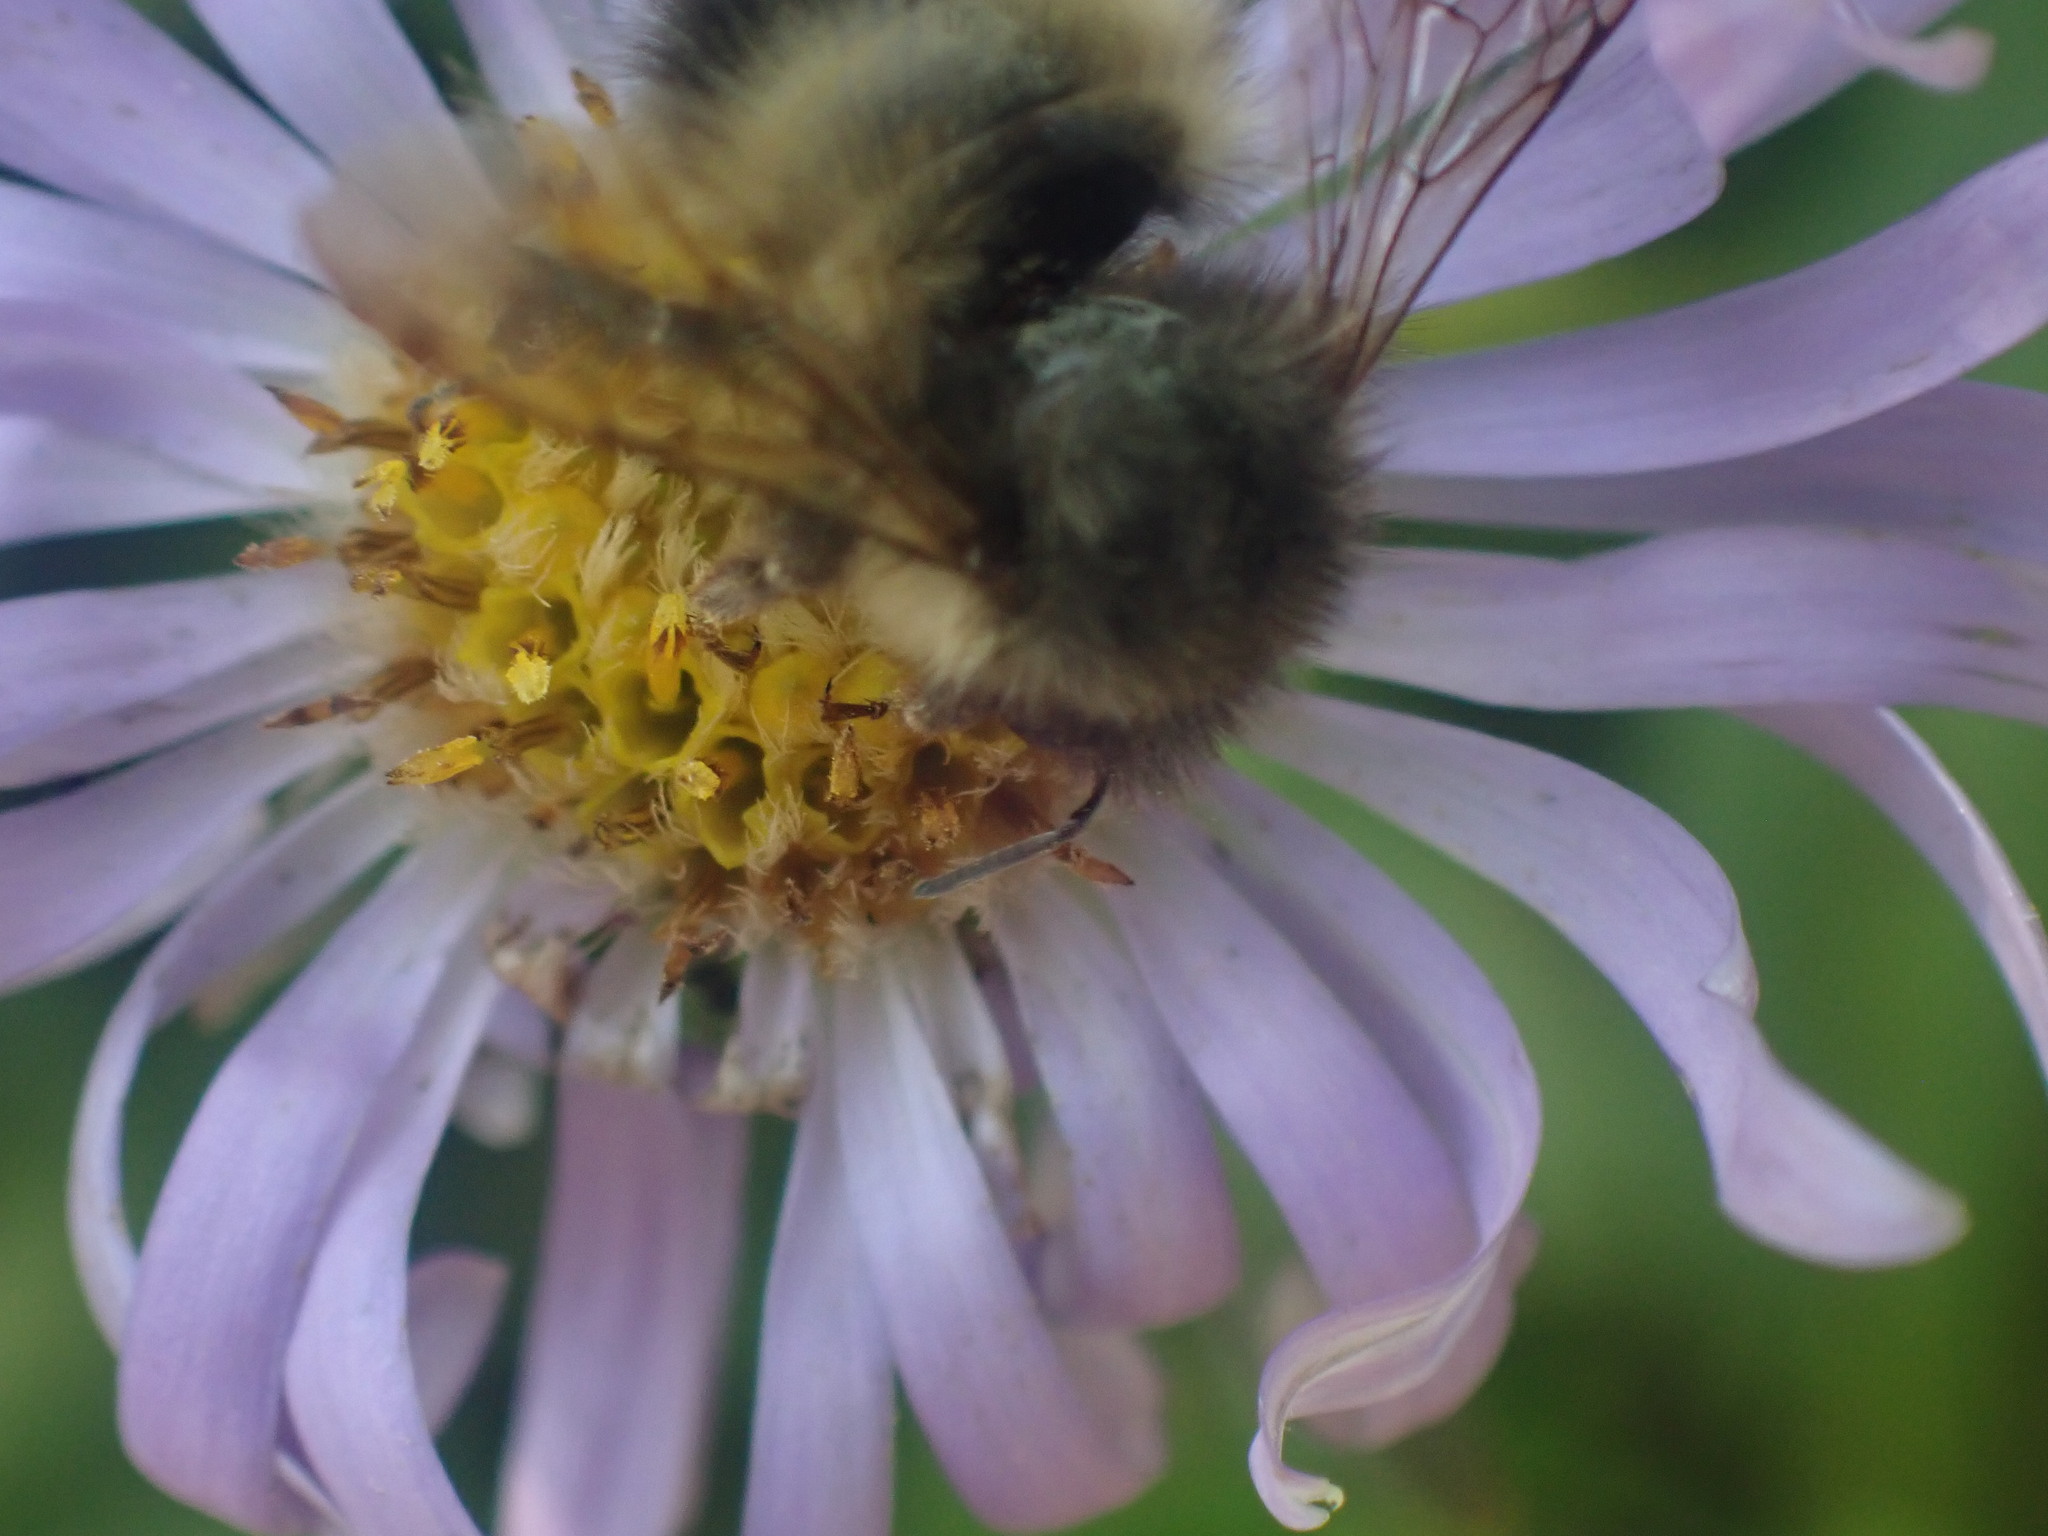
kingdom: Animalia
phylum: Arthropoda
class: Insecta
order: Hymenoptera
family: Apidae
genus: Bombus
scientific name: Bombus sitkensis
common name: Sitka bumble bee
